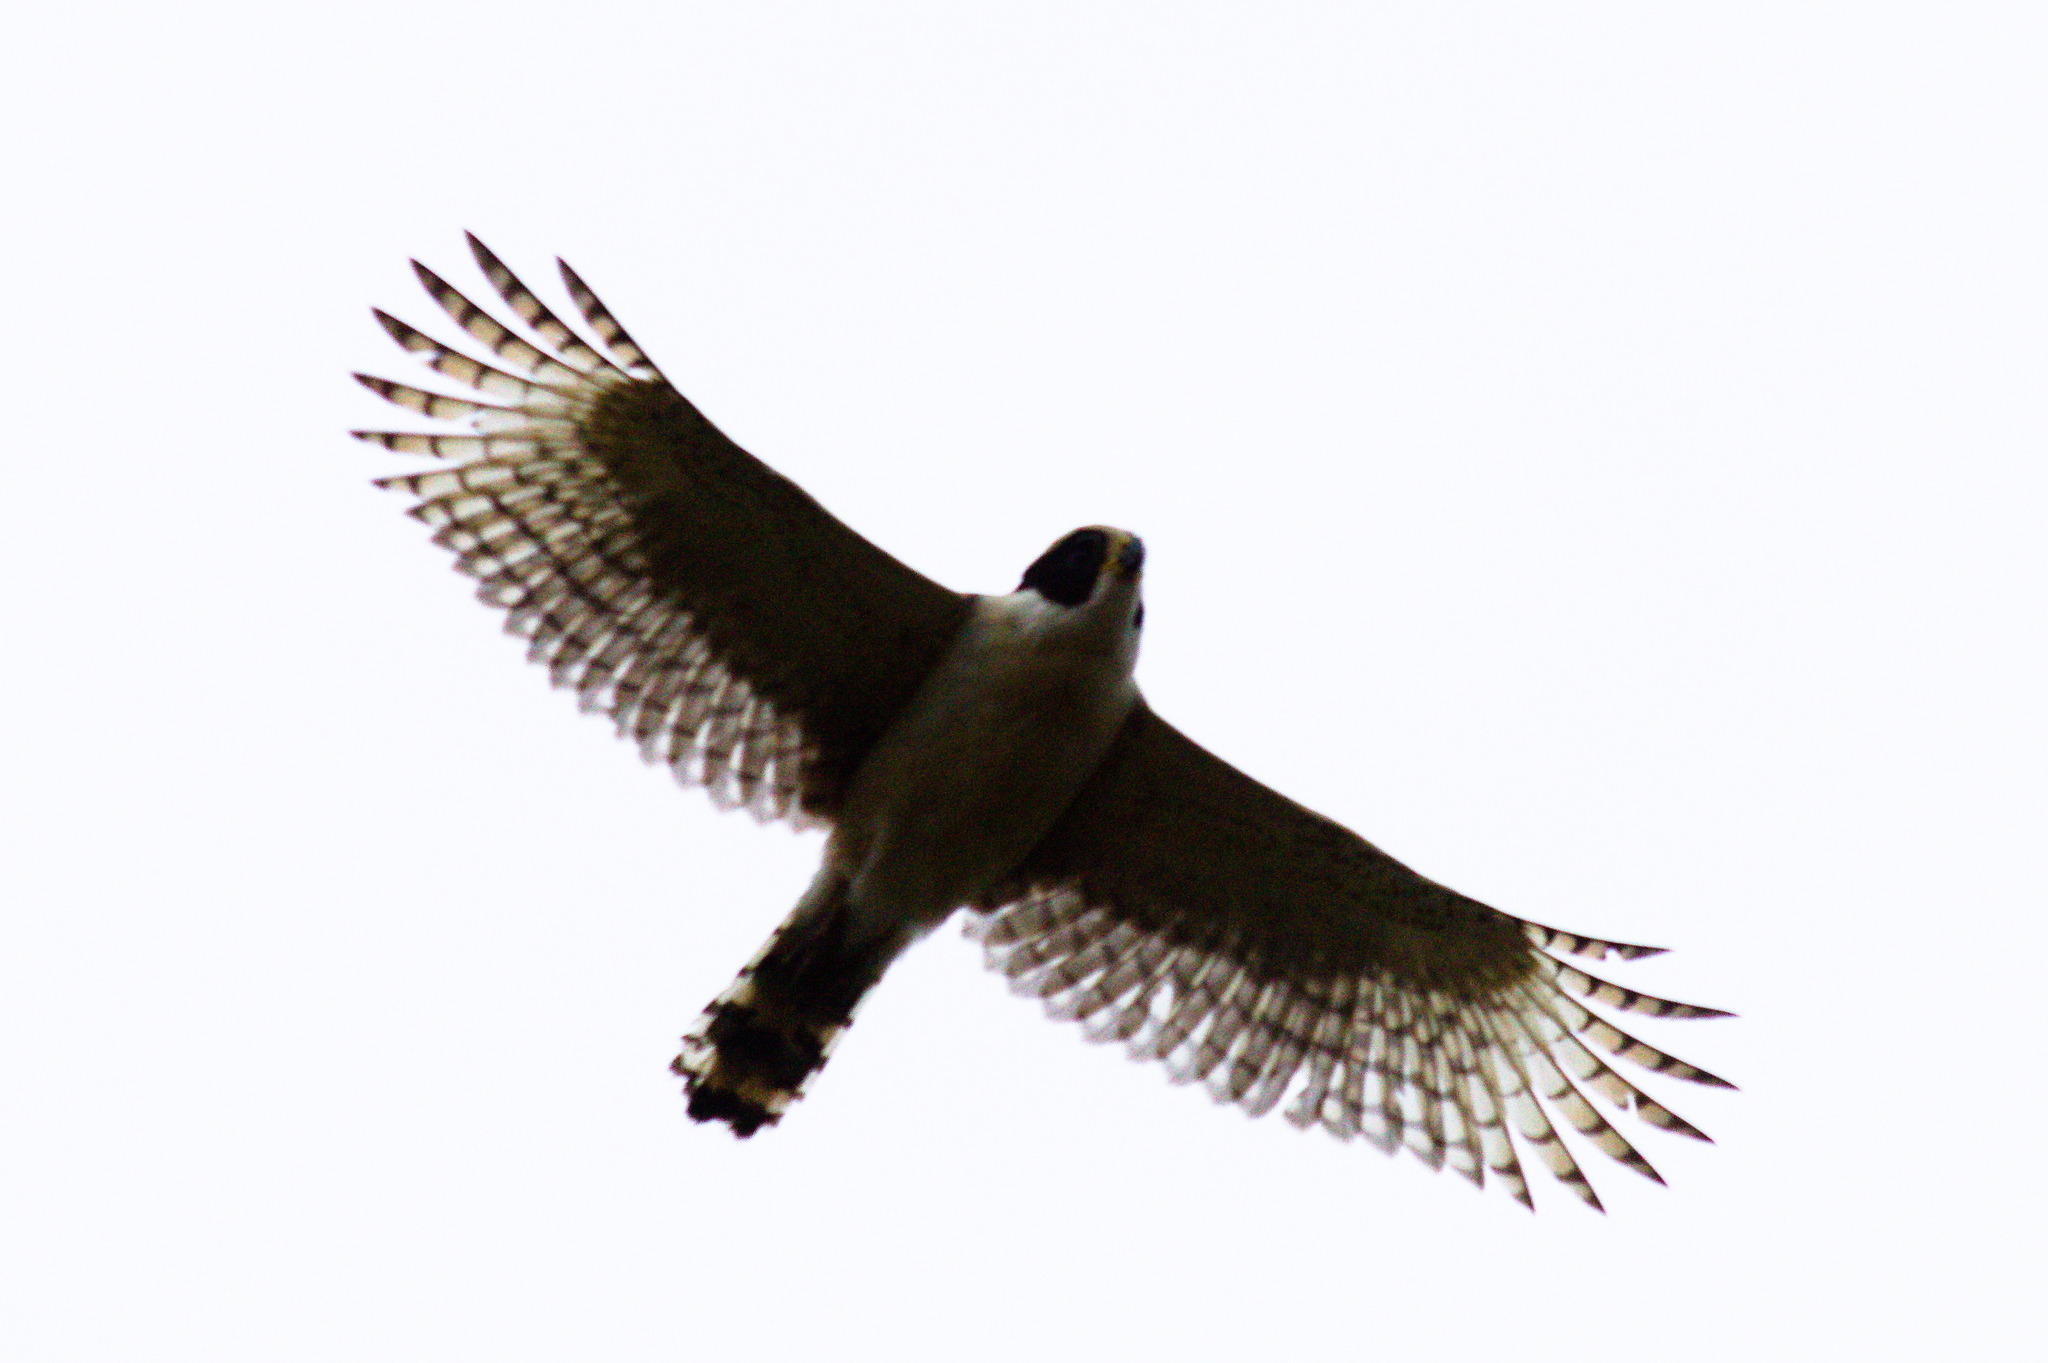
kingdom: Animalia
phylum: Chordata
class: Aves
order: Falconiformes
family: Falconidae
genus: Herpetotheres
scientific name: Herpetotheres cachinnans
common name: Laughing falcon
